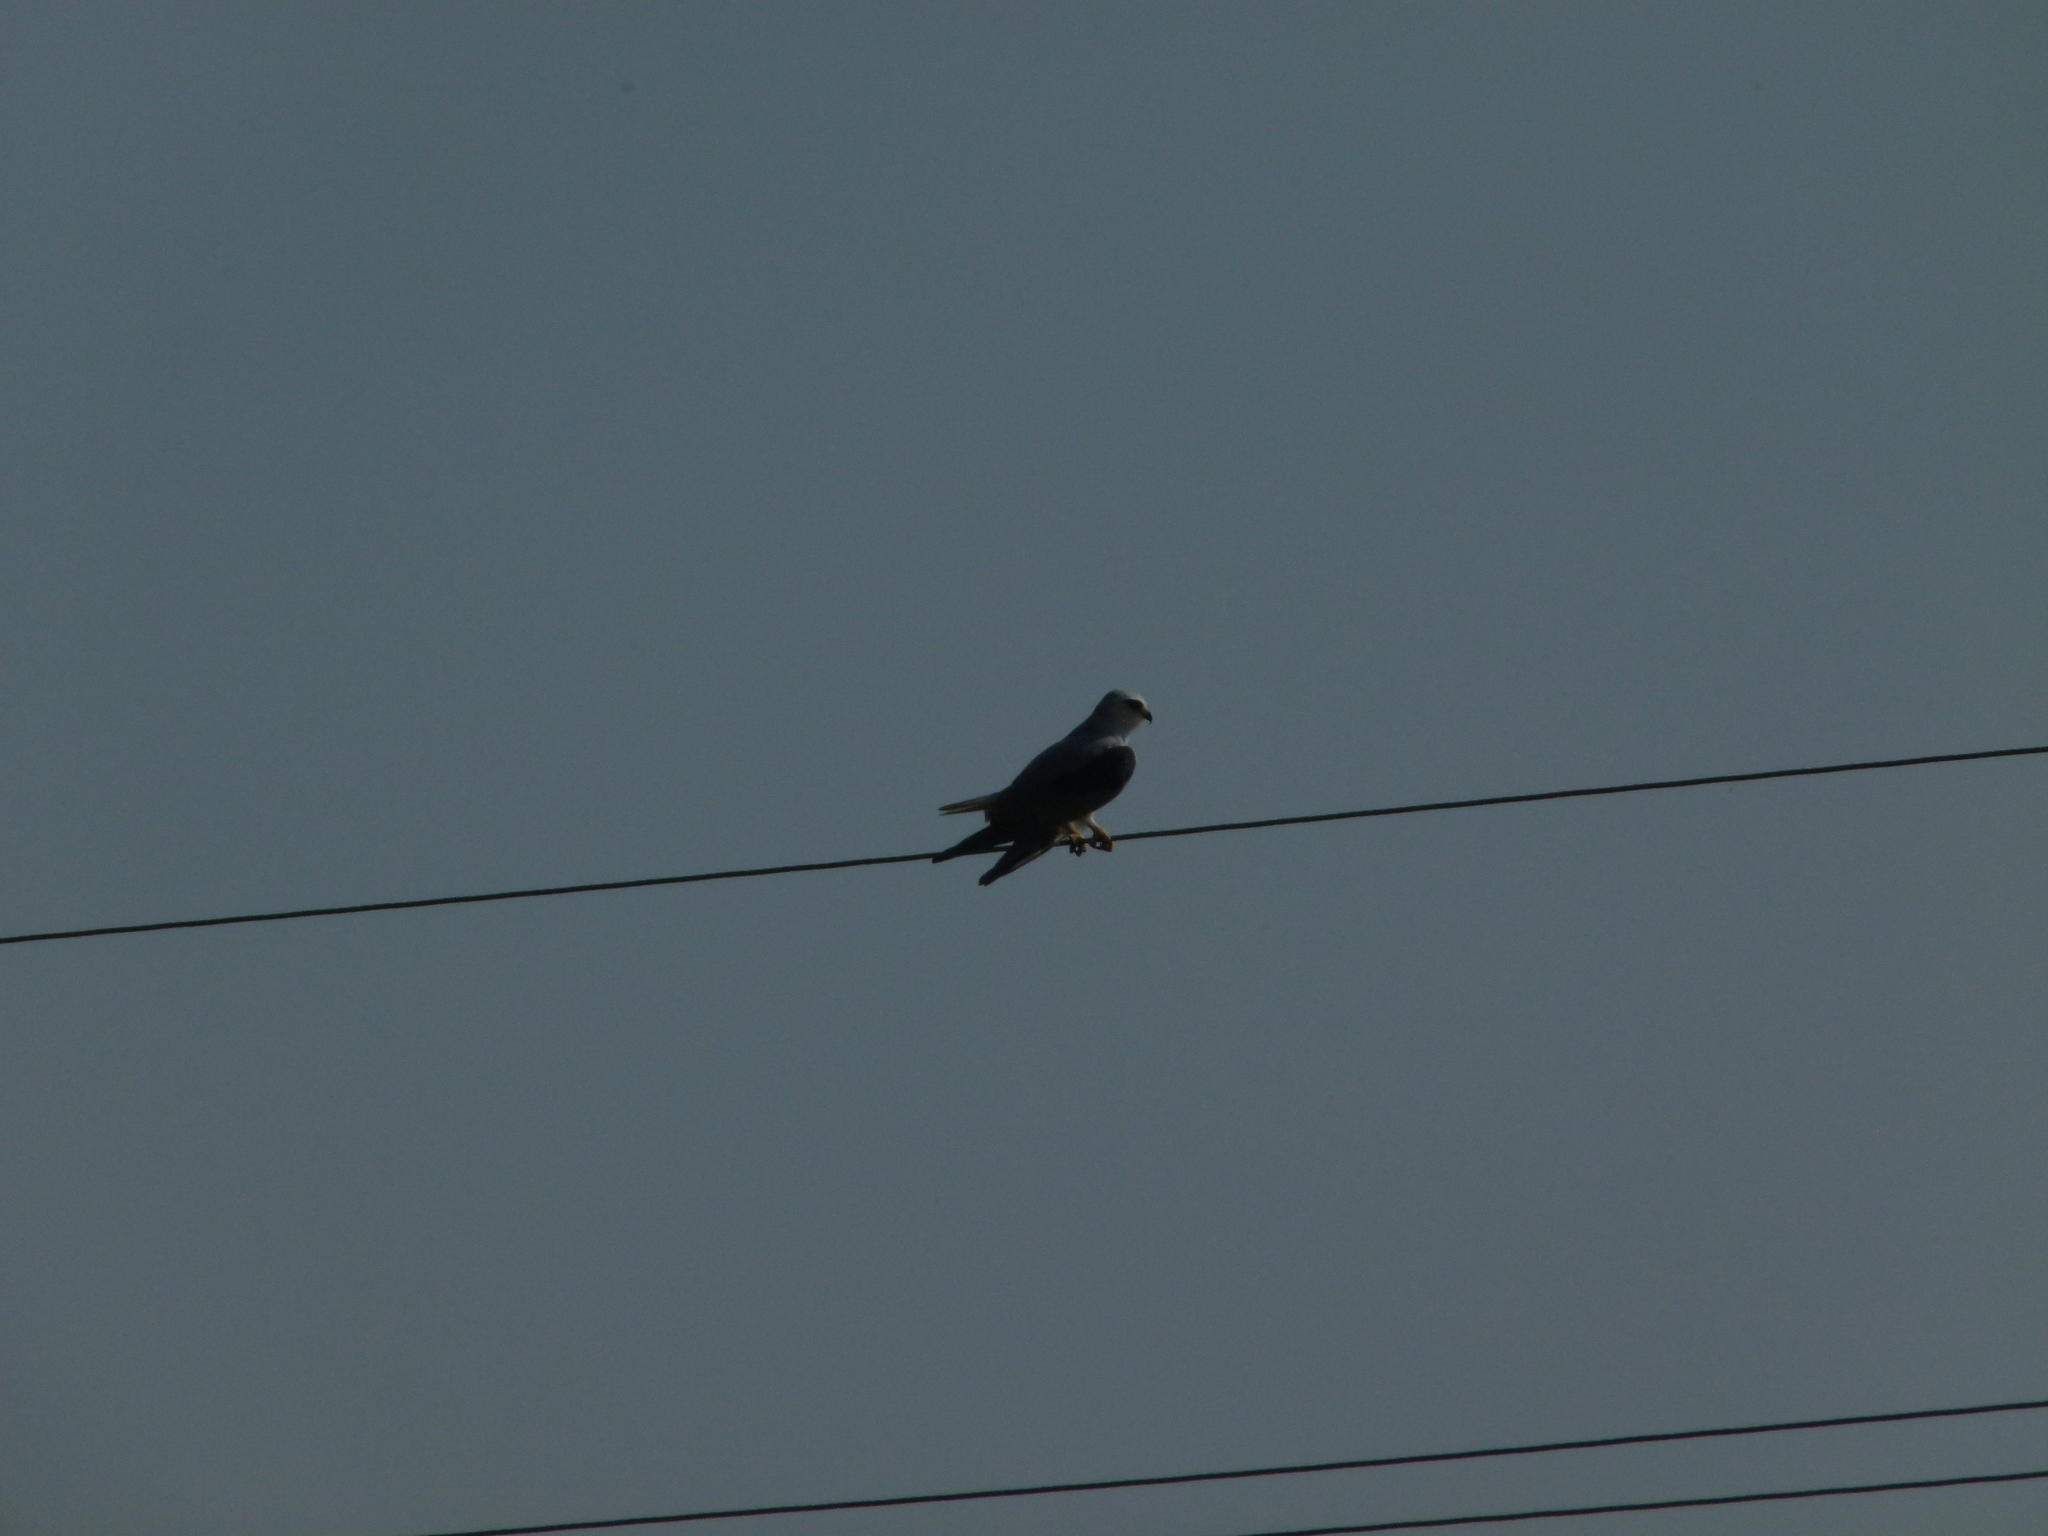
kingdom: Animalia
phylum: Chordata
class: Aves
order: Accipitriformes
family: Accipitridae
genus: Elanus
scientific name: Elanus caeruleus
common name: Black-winged kite
